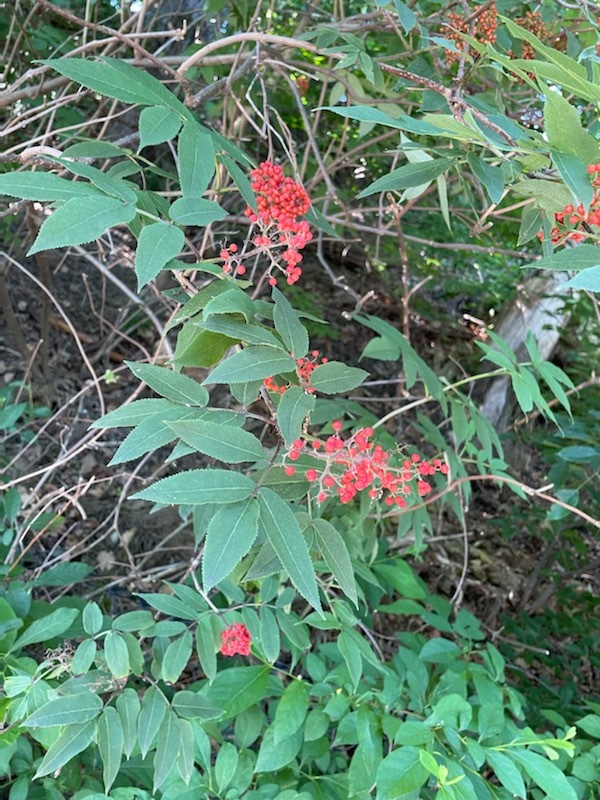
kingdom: Plantae
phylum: Tracheophyta
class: Magnoliopsida
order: Dipsacales
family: Viburnaceae
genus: Sambucus
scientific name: Sambucus racemosa
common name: Red-berried elder
